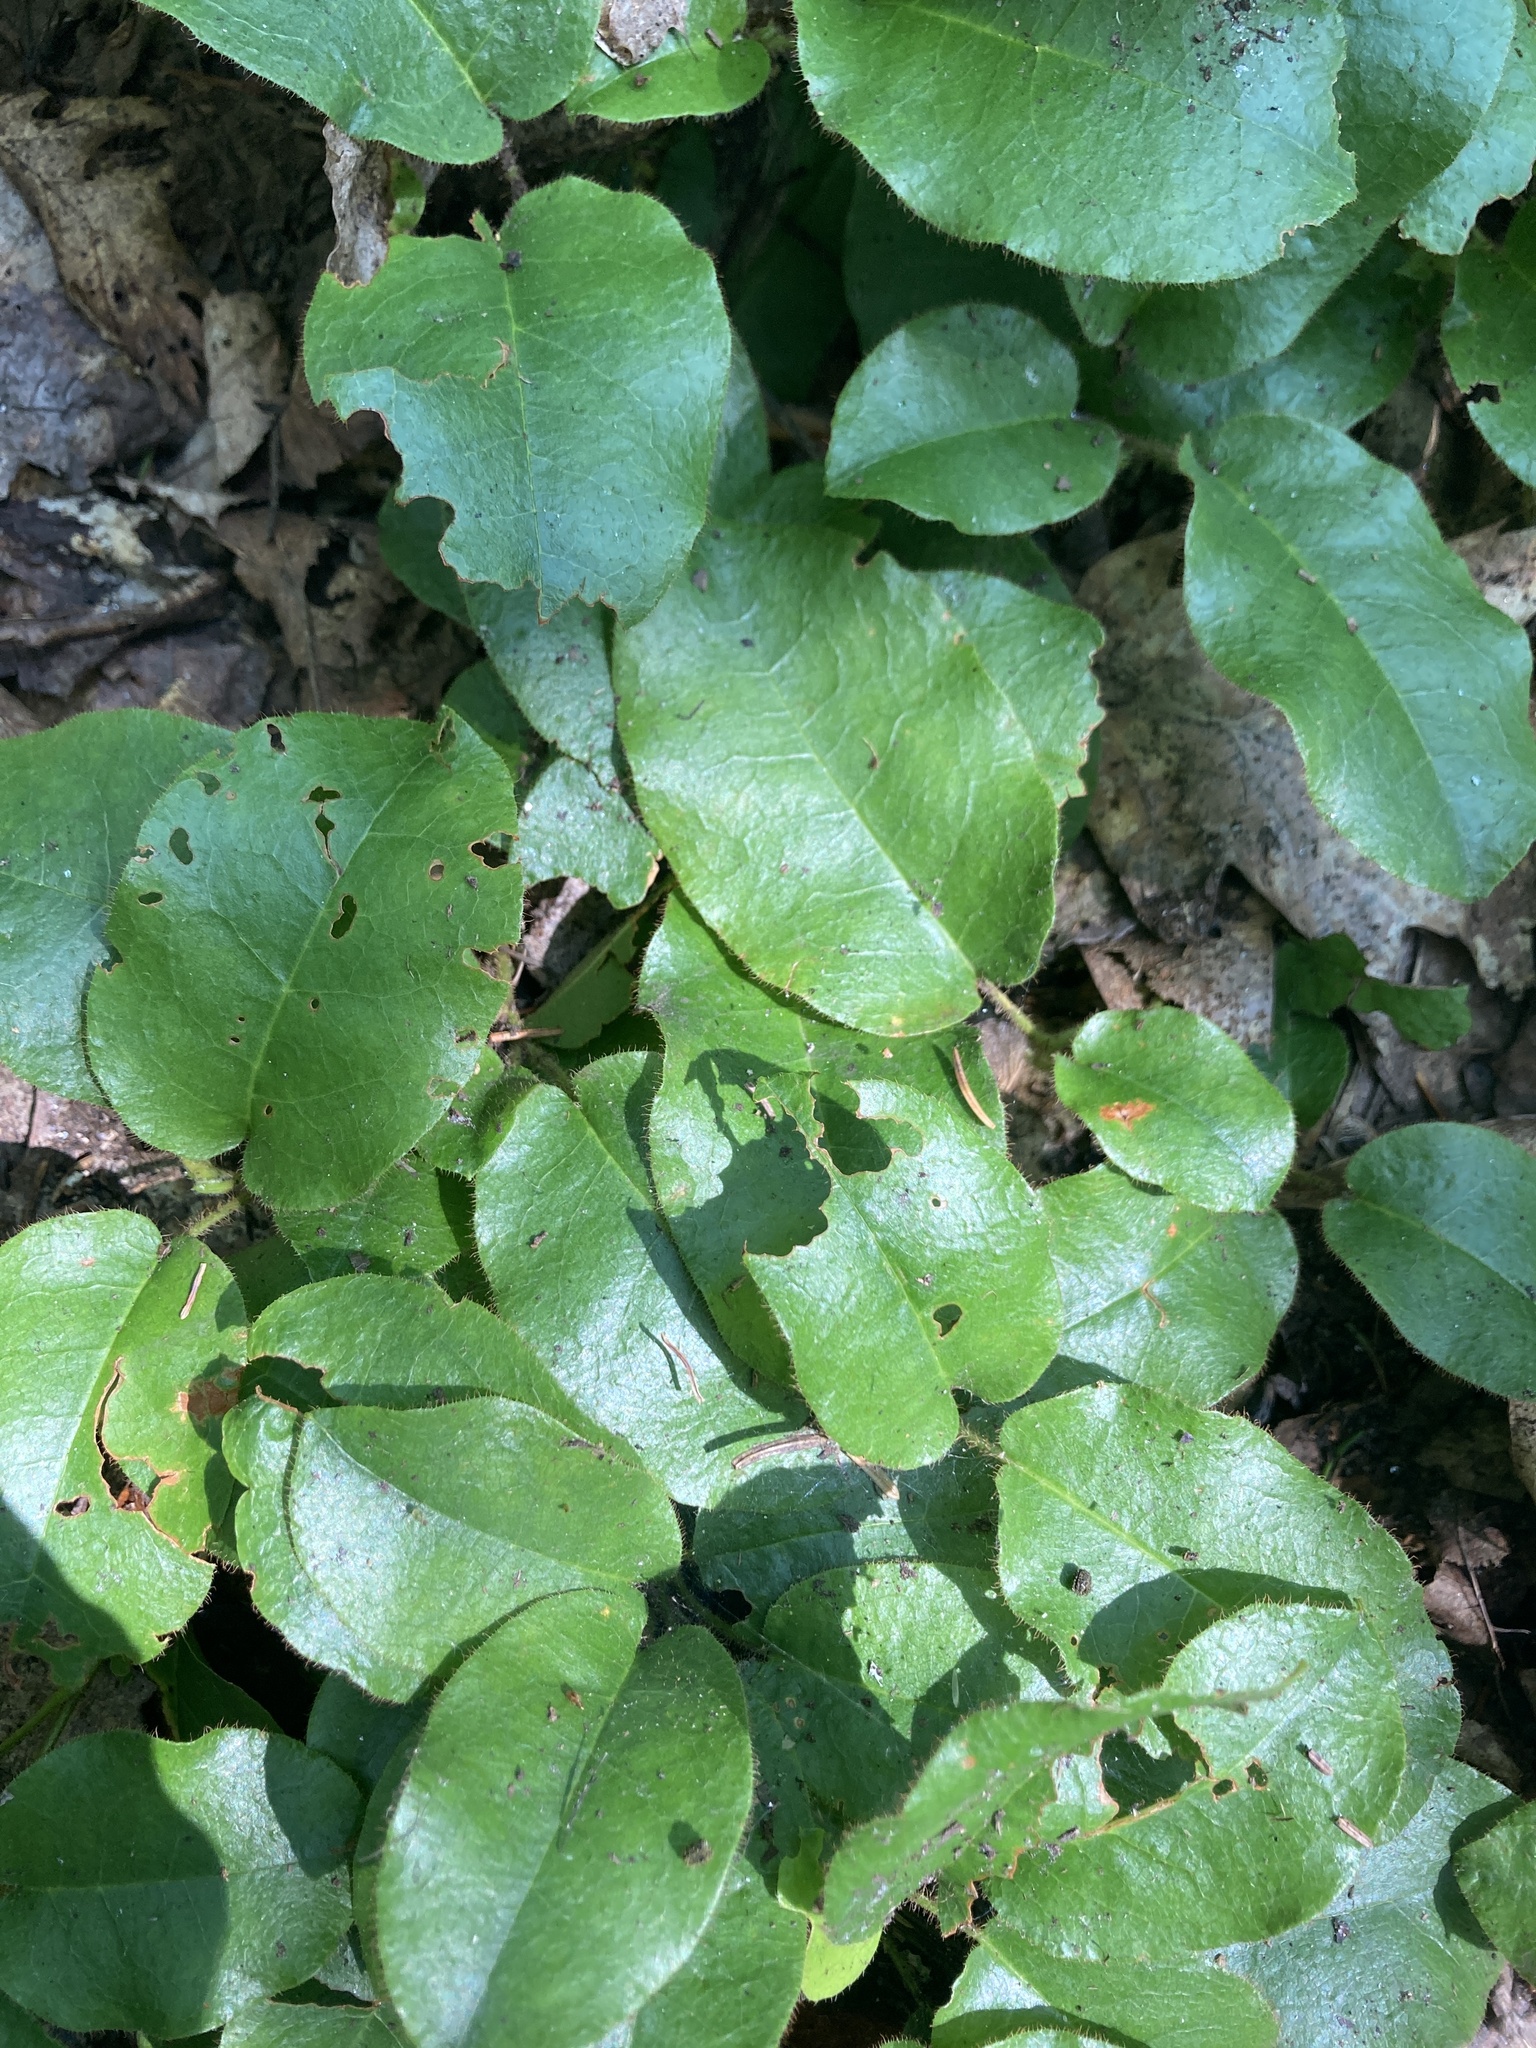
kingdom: Plantae
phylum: Tracheophyta
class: Magnoliopsida
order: Ericales
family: Ericaceae
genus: Epigaea
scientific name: Epigaea repens
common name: Gravelroot
